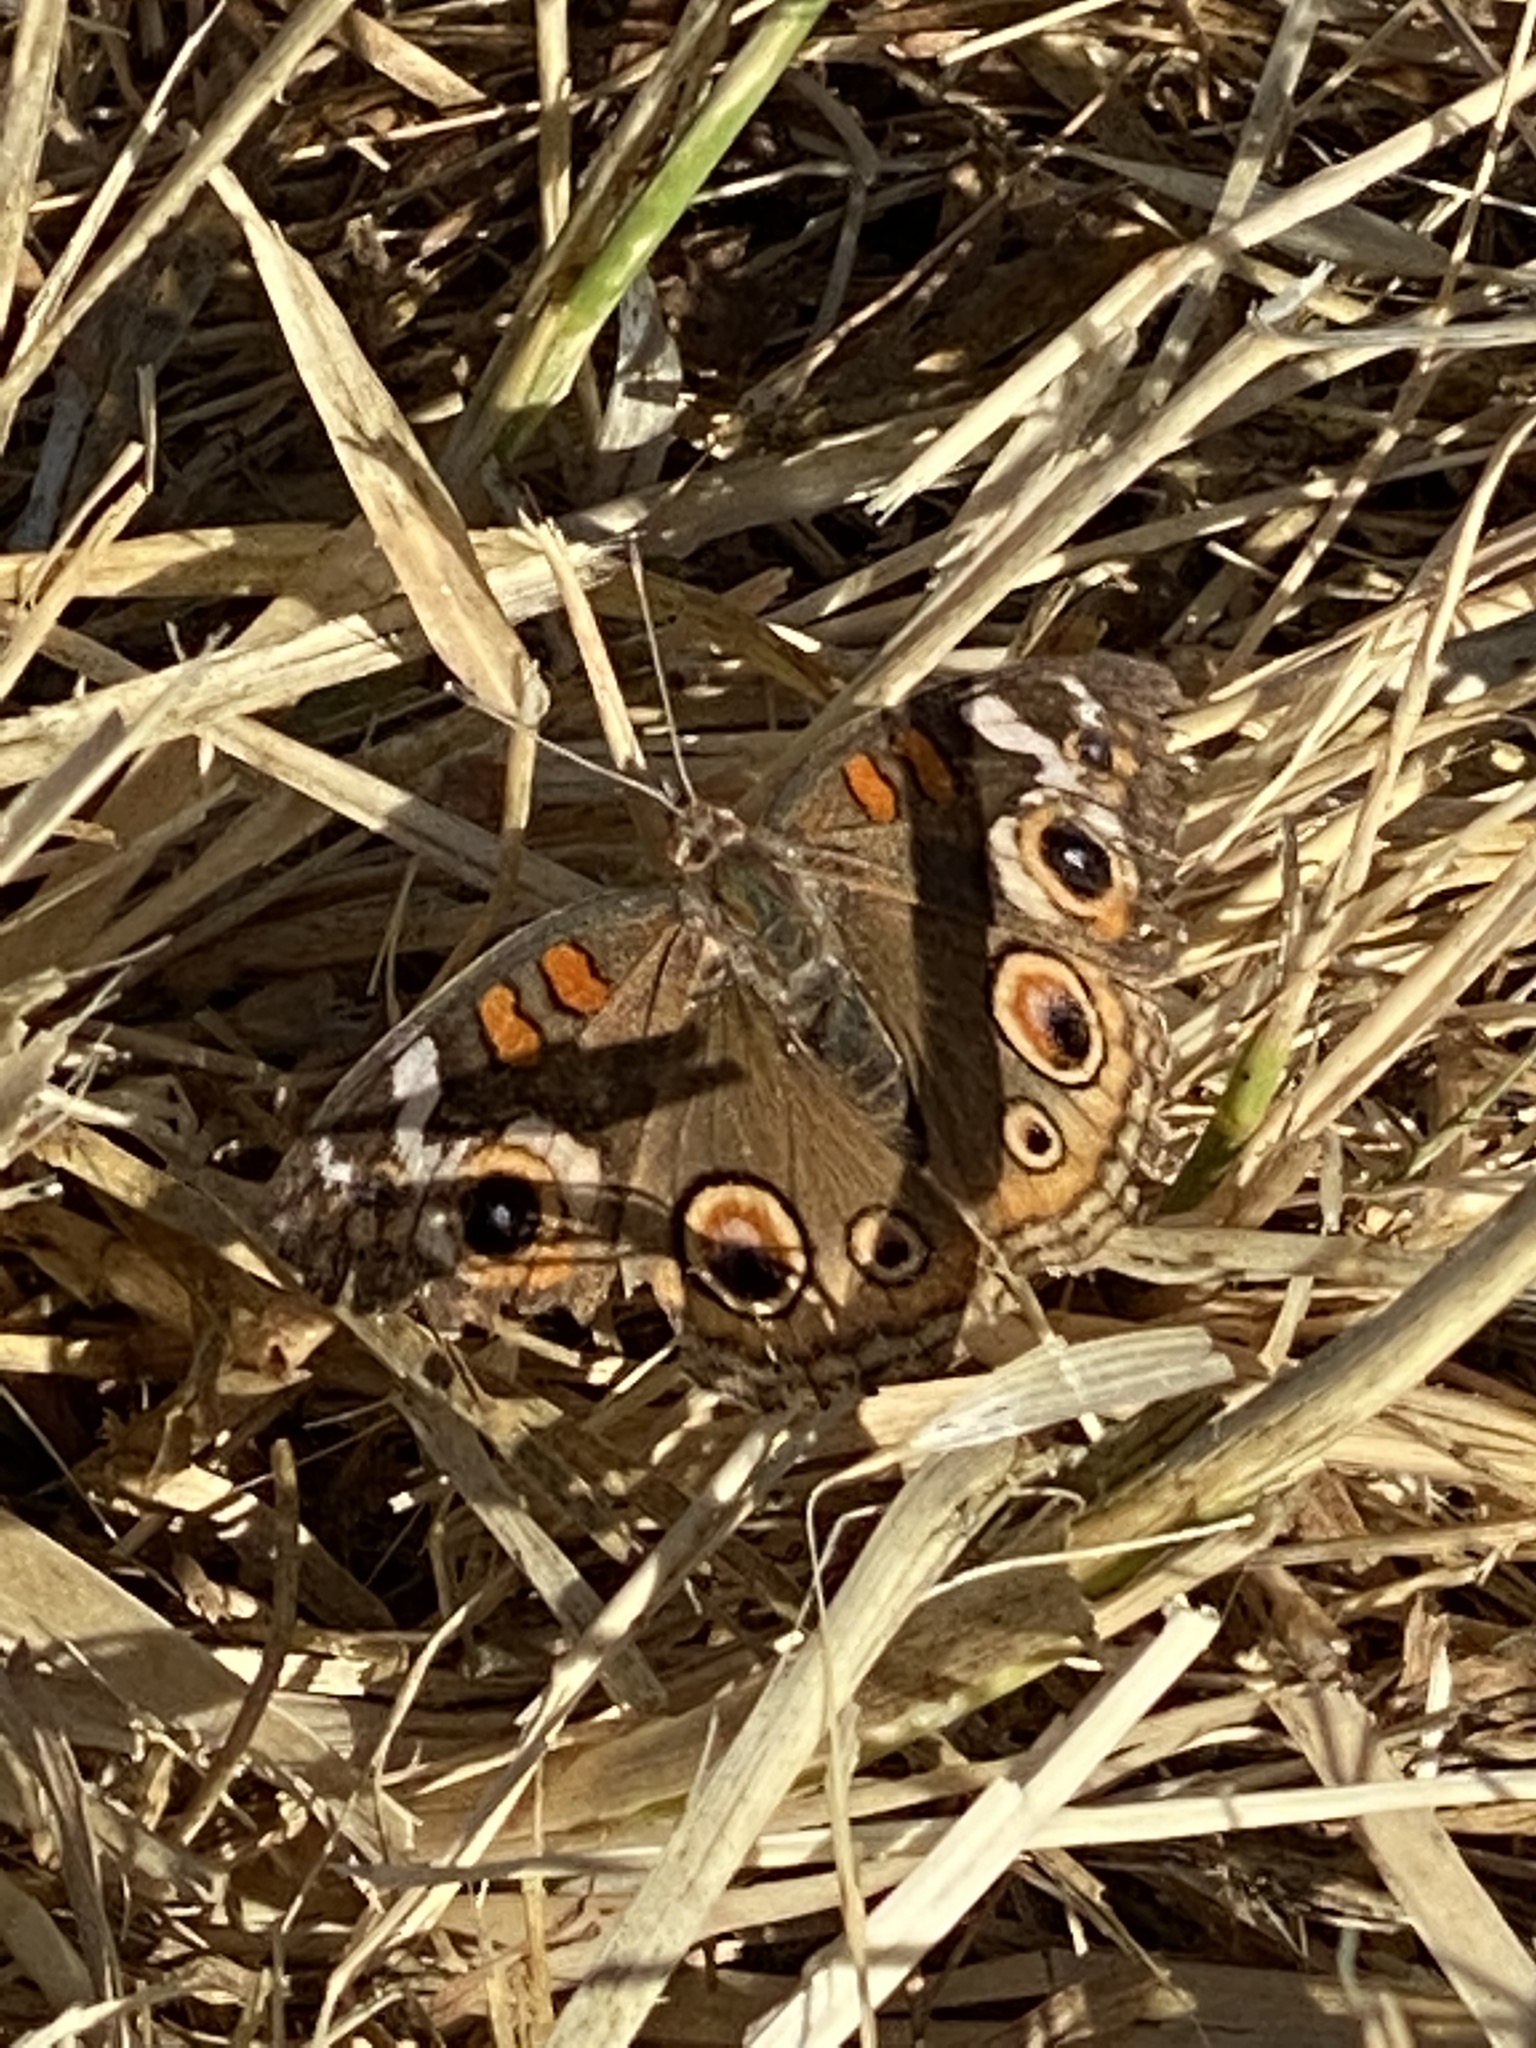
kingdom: Animalia
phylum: Arthropoda
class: Insecta
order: Lepidoptera
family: Nymphalidae
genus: Junonia
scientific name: Junonia grisea
